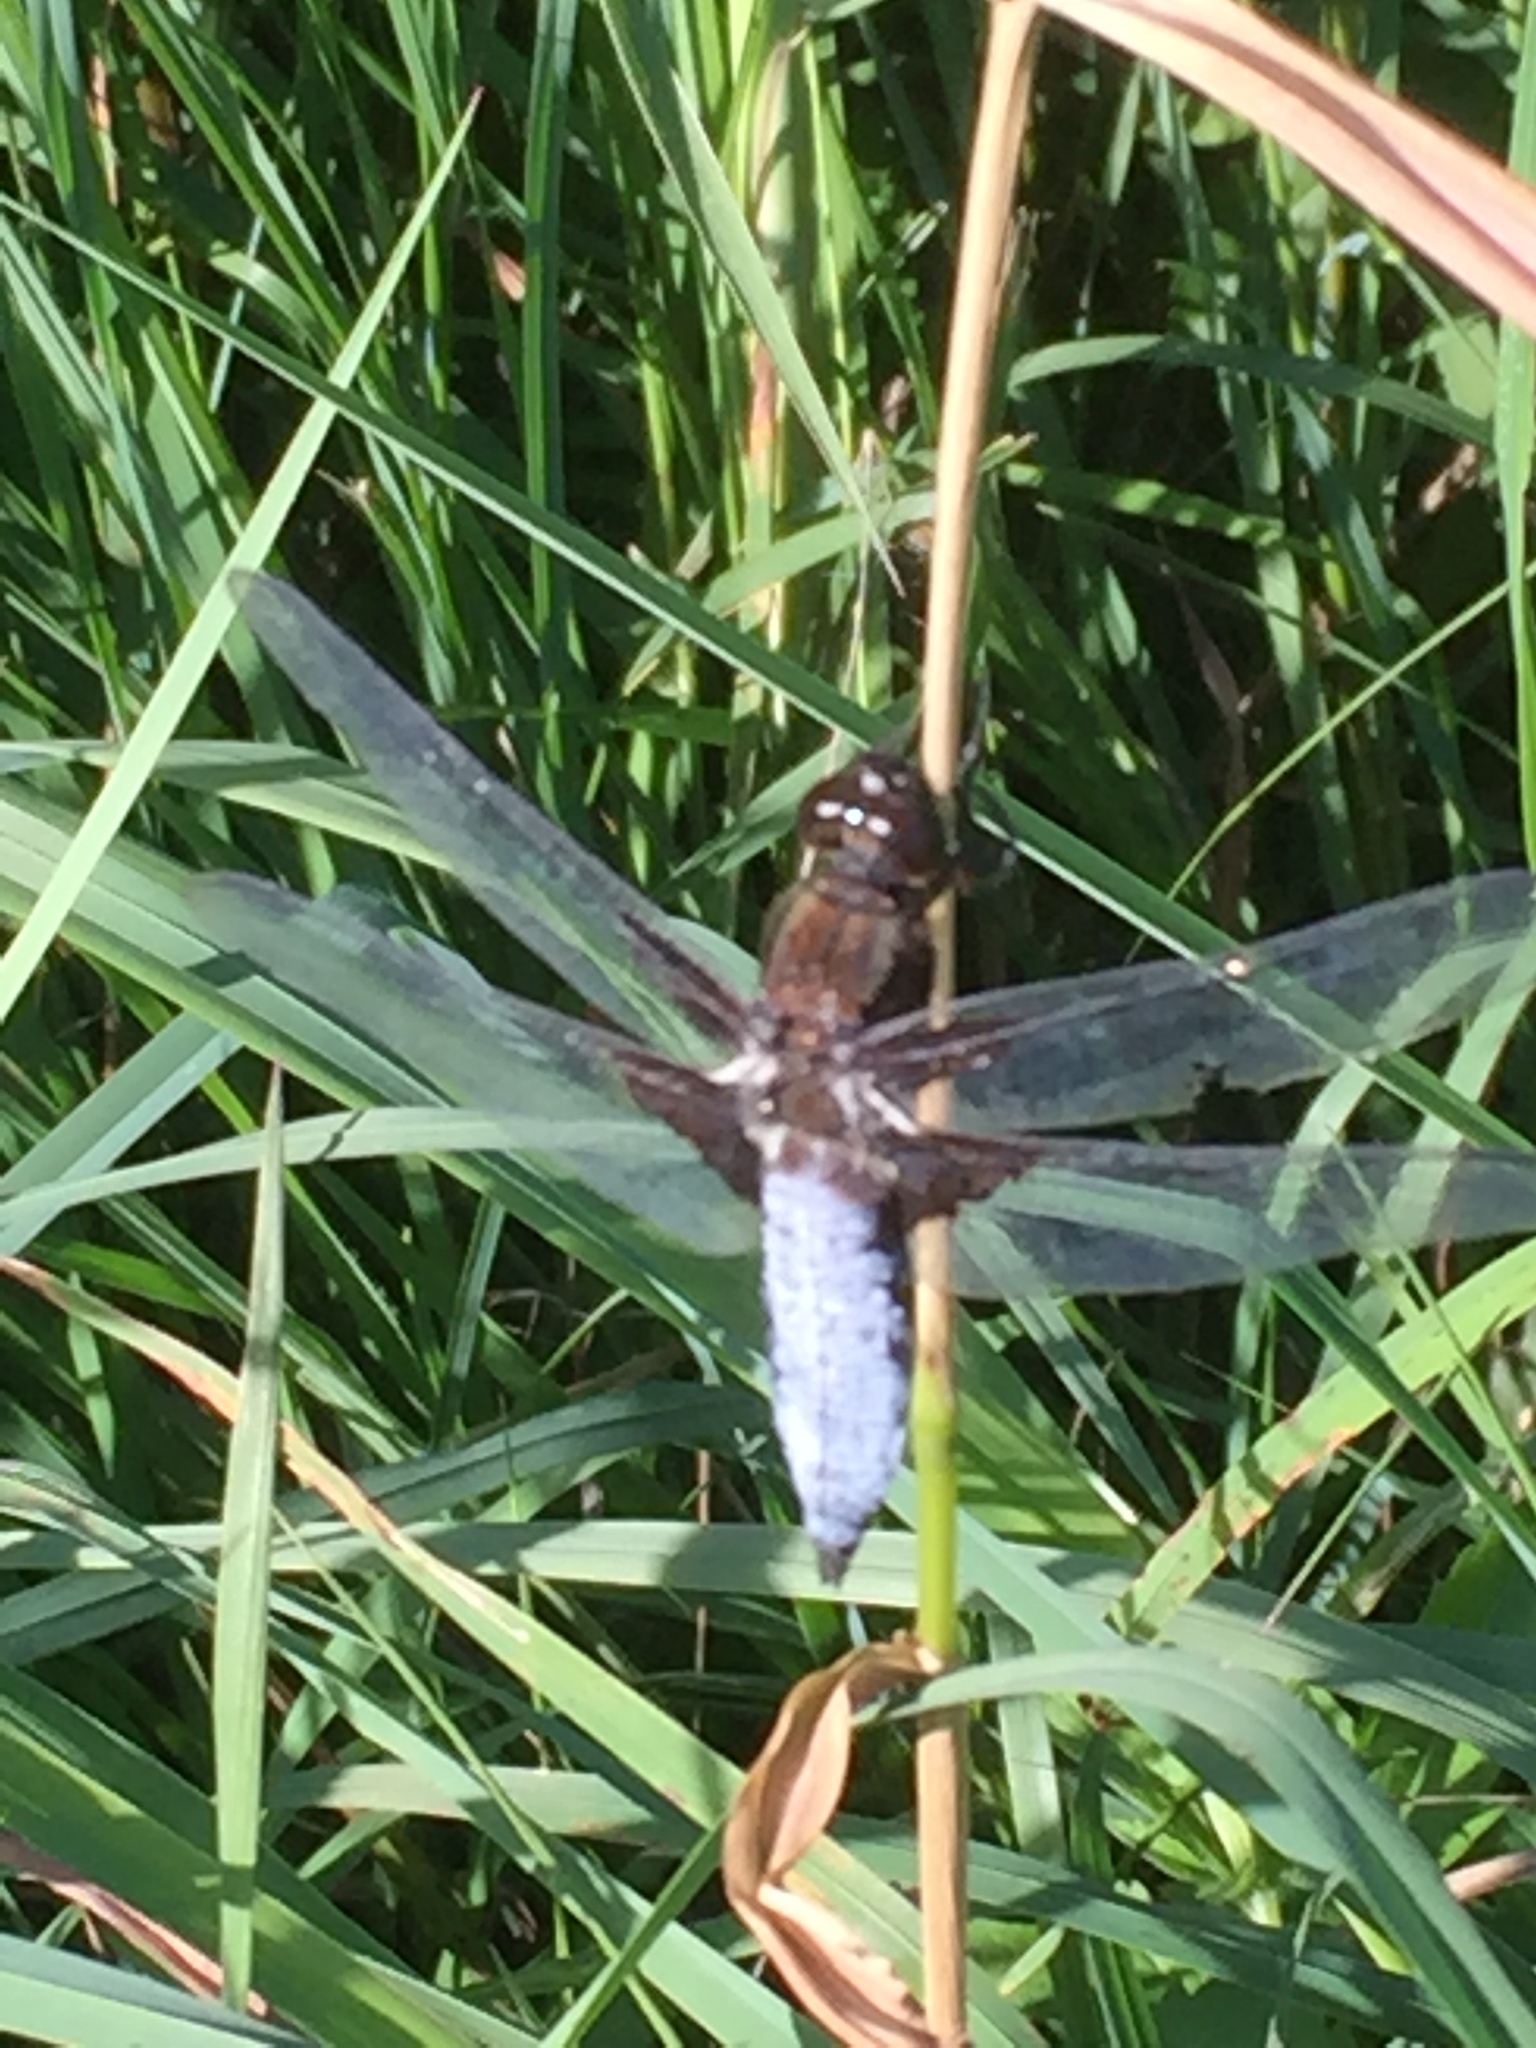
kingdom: Animalia
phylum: Arthropoda
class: Insecta
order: Odonata
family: Libellulidae
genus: Libellula
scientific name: Libellula depressa
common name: Broad-bodied chaser
